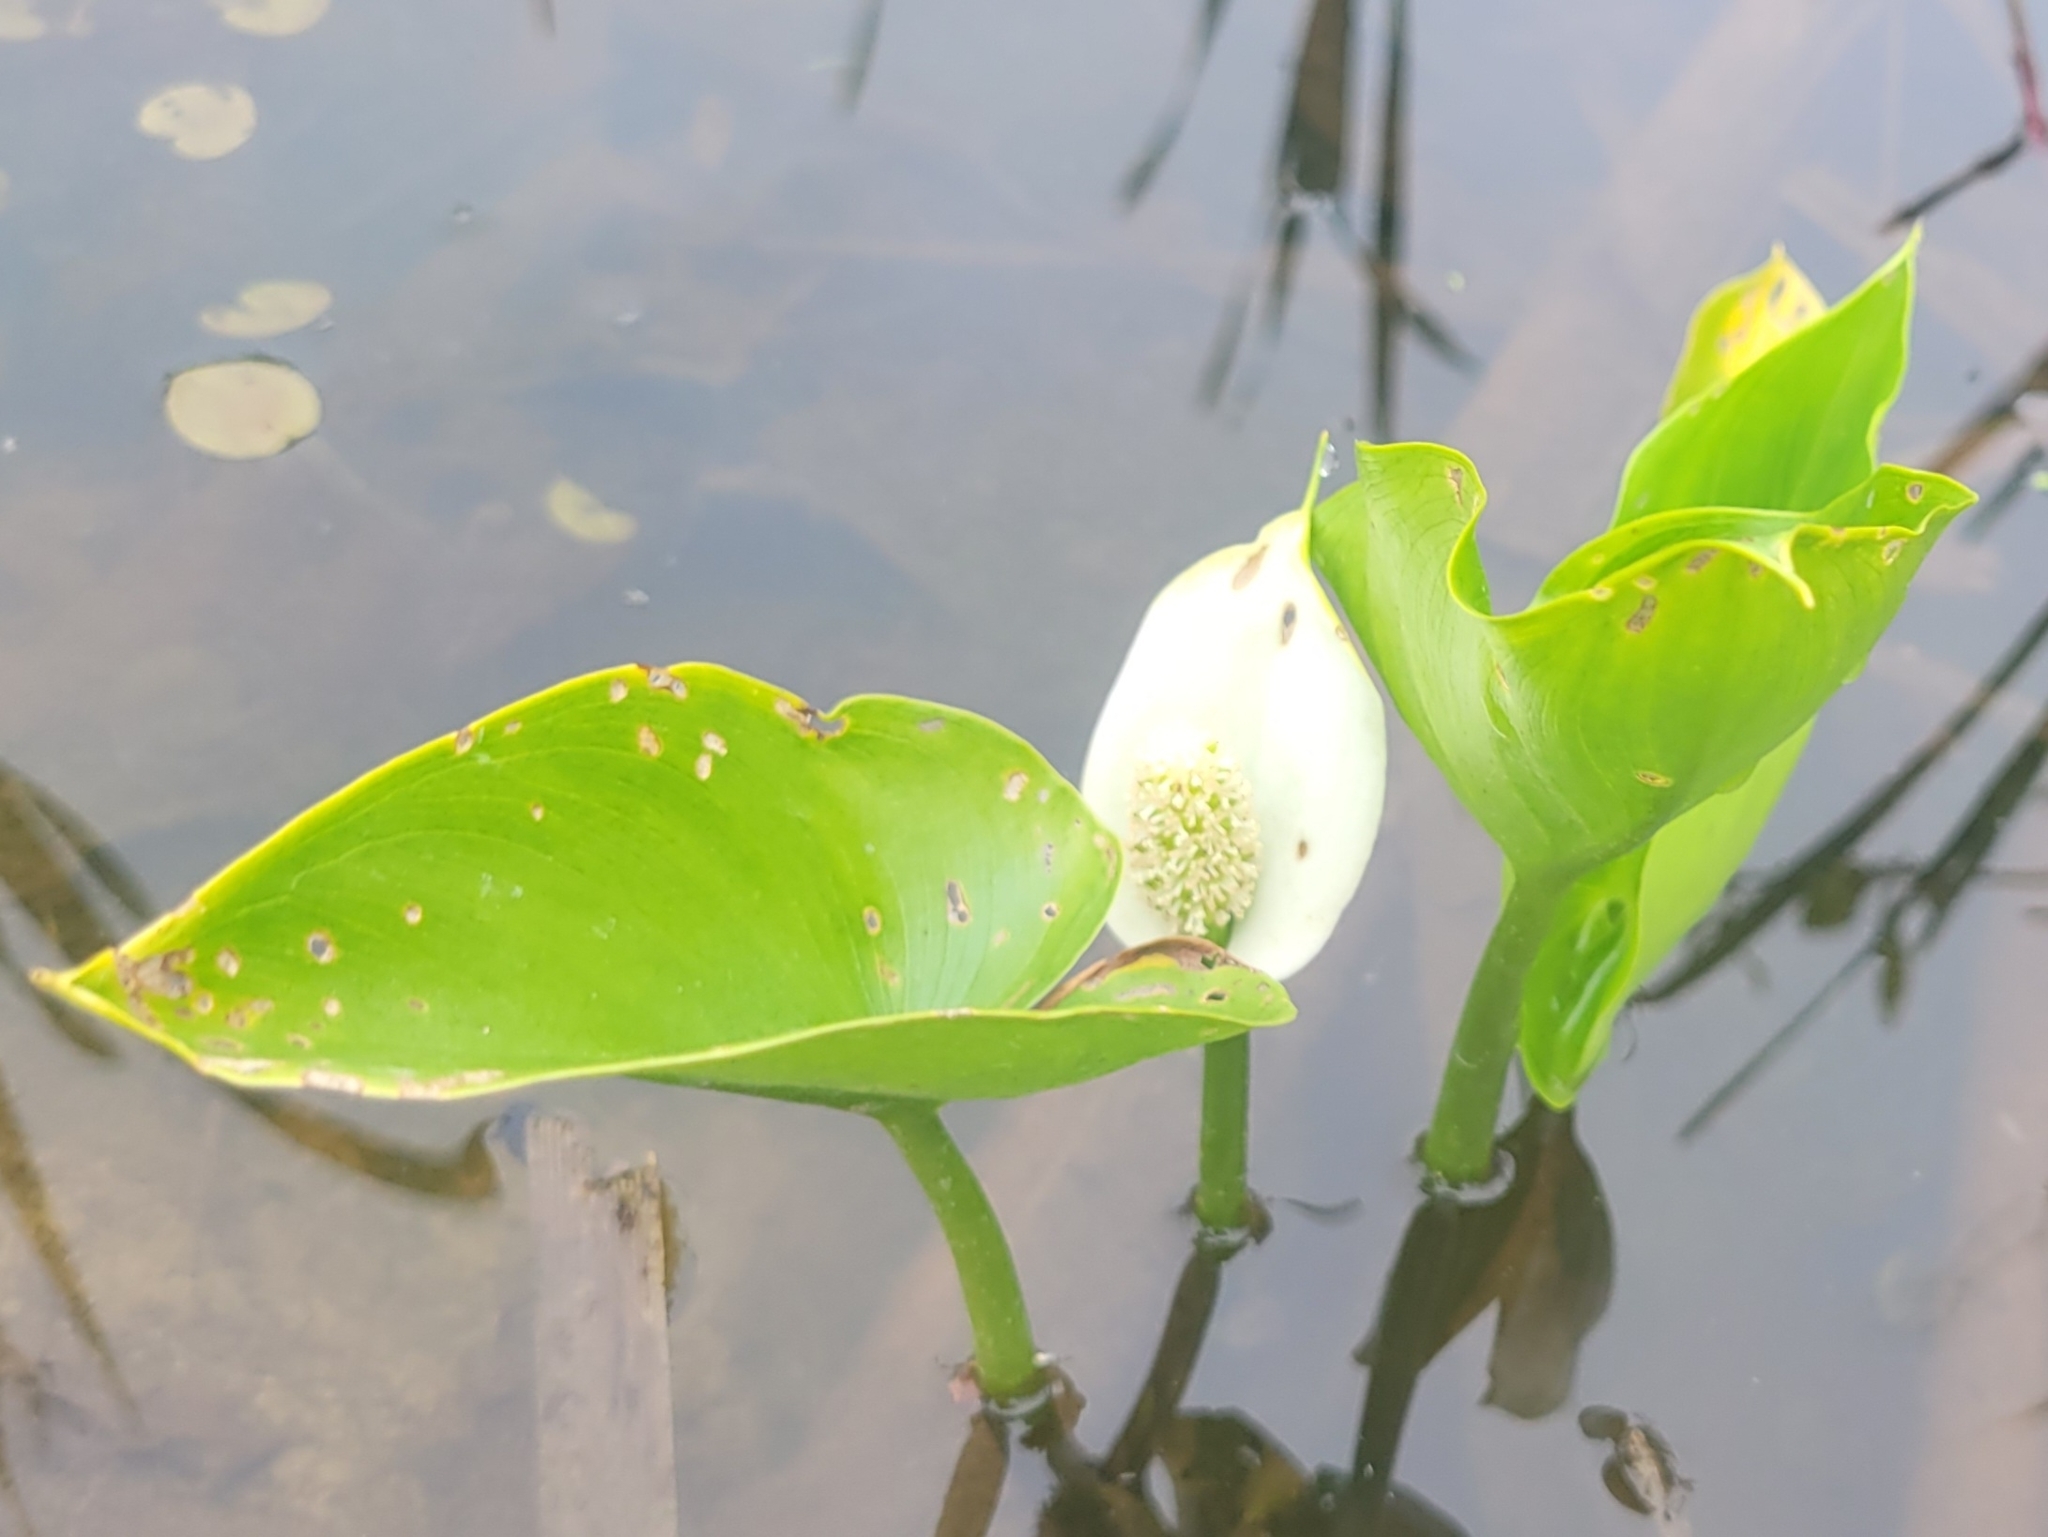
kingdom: Plantae
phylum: Tracheophyta
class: Liliopsida
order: Alismatales
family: Araceae
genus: Calla
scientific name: Calla palustris
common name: Bog arum
